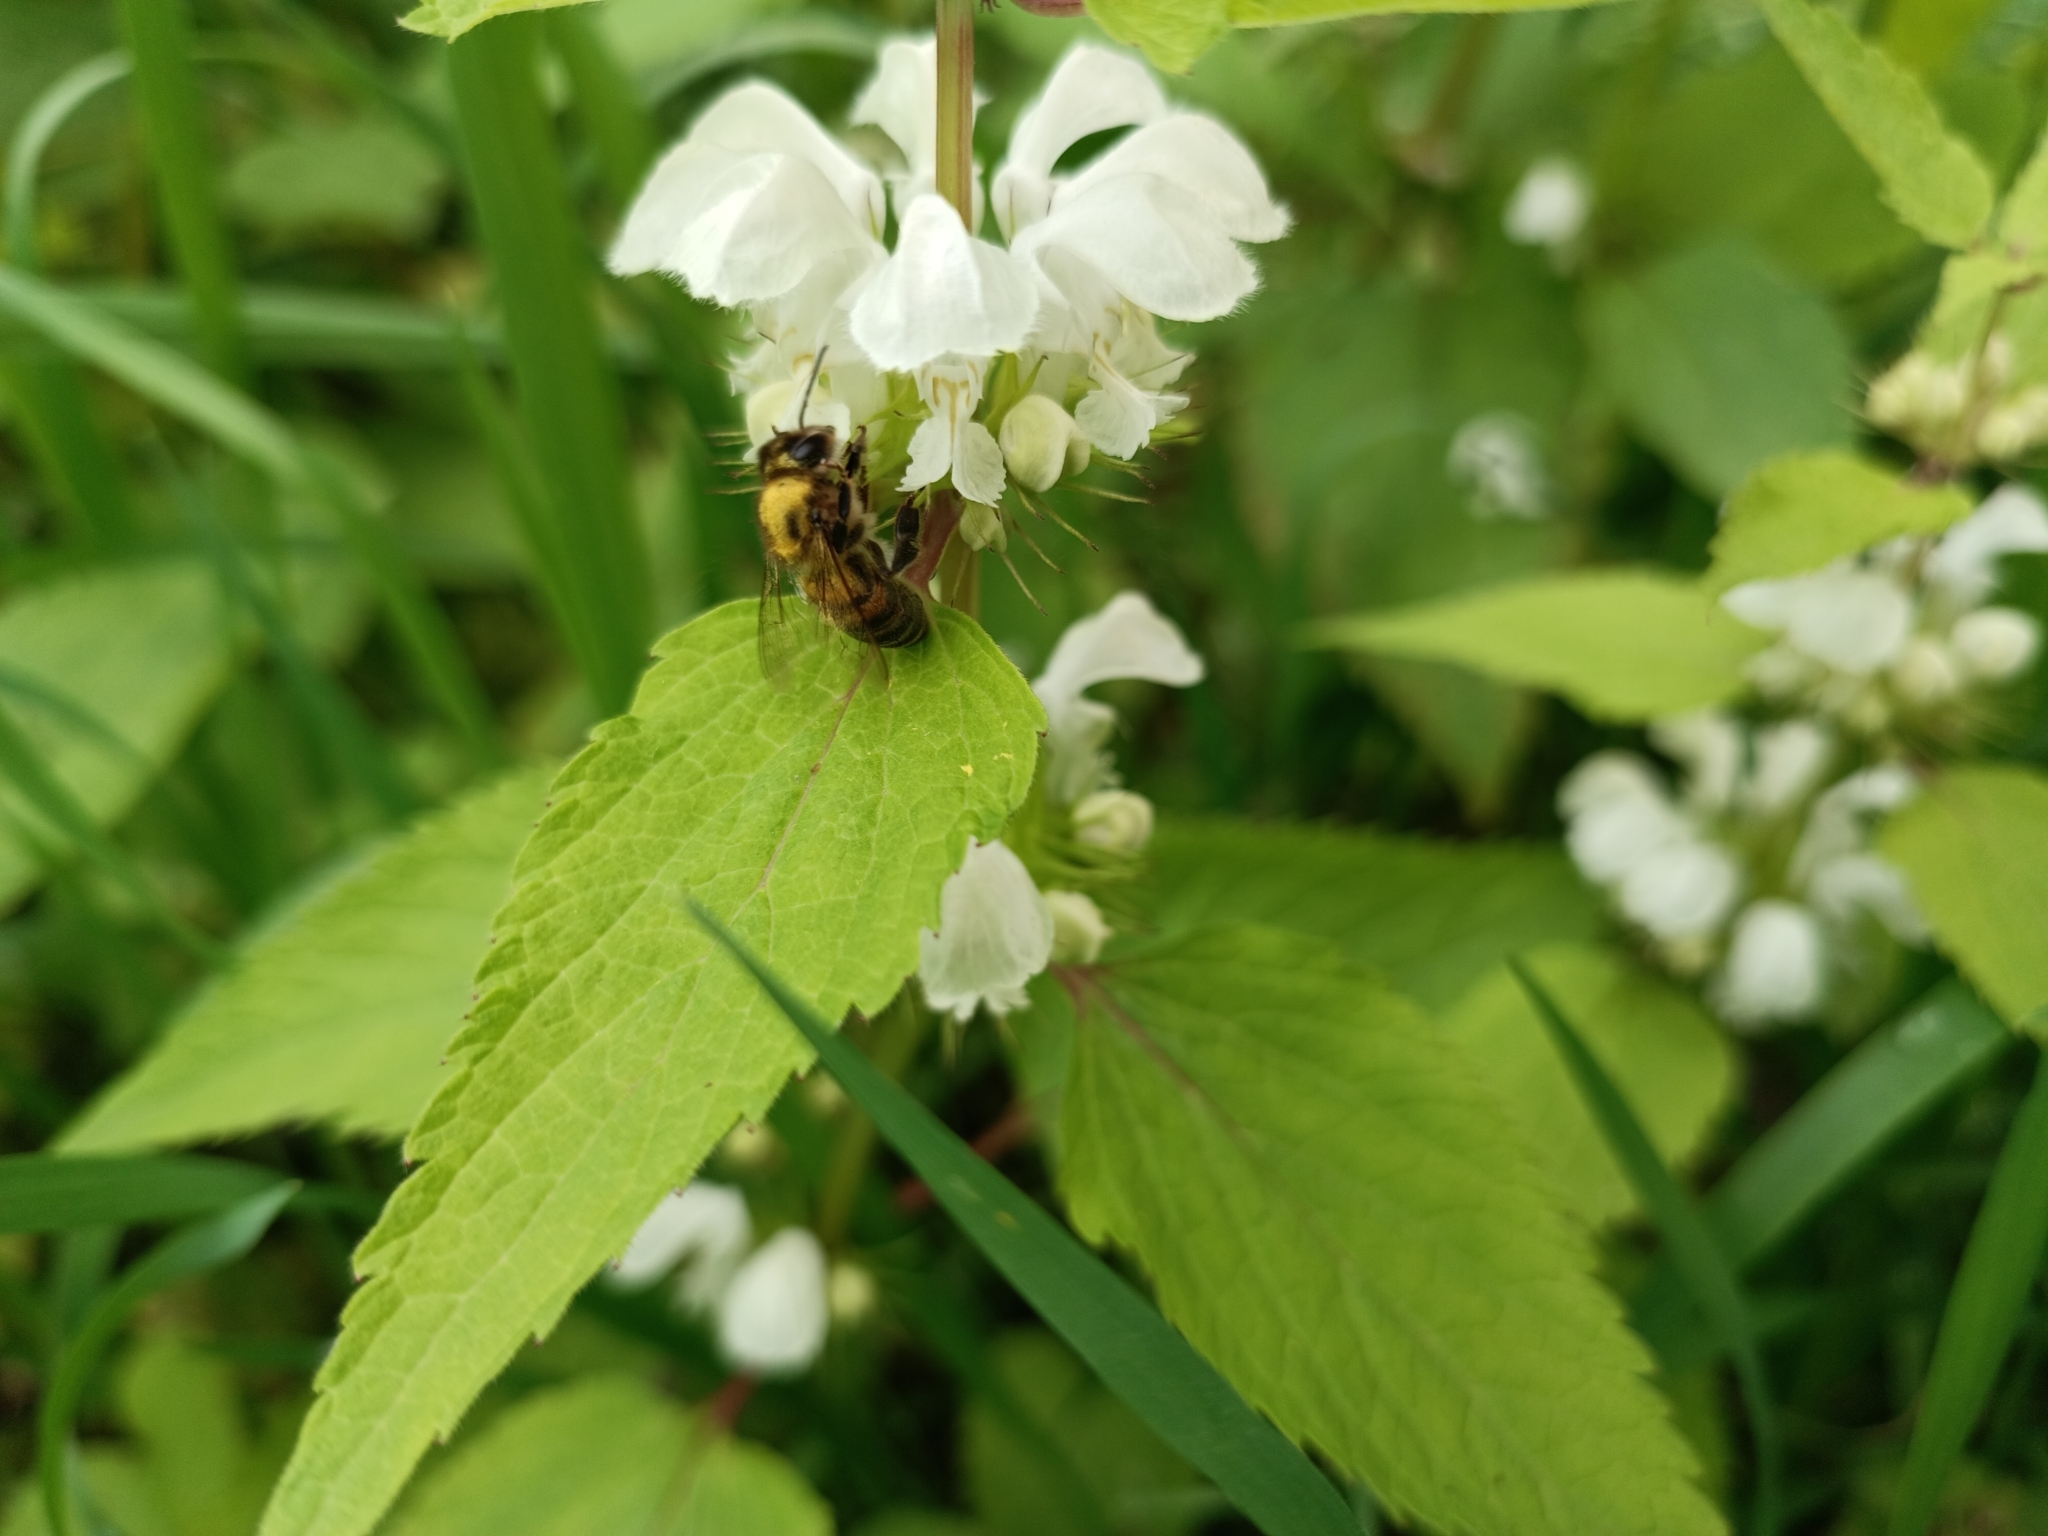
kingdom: Animalia
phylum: Arthropoda
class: Insecta
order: Hymenoptera
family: Apidae
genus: Apis
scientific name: Apis mellifera
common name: Honey bee
